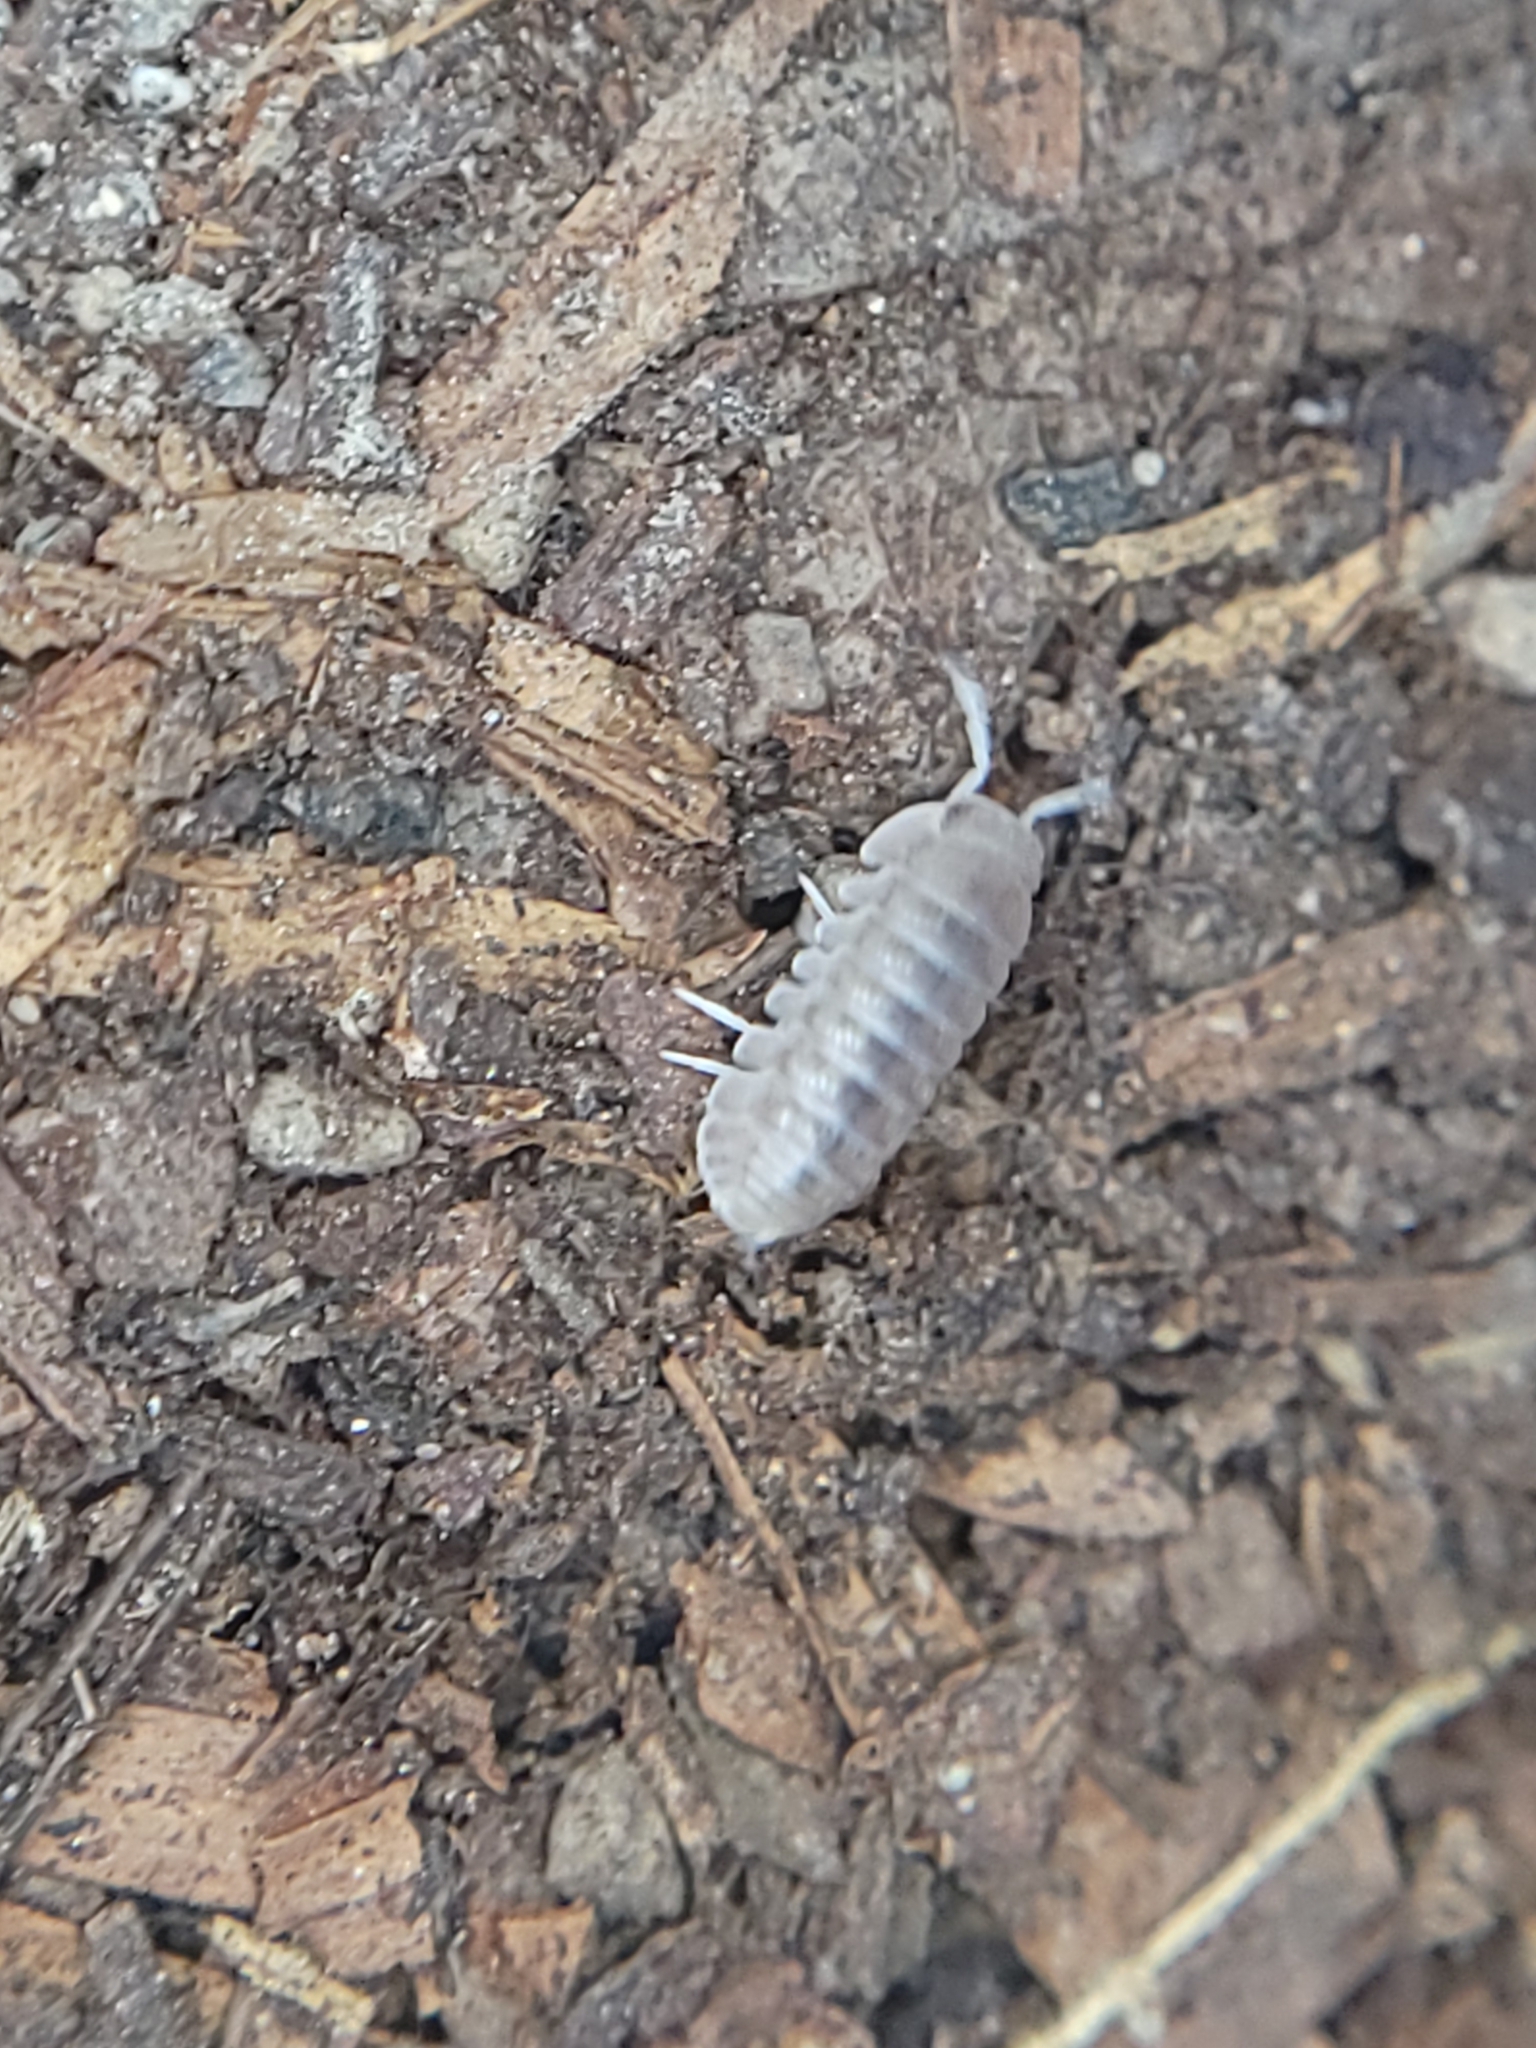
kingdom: Animalia
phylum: Arthropoda
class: Malacostraca
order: Isopoda
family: Armadillidae
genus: Venezillo
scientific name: Venezillo microphthalmus
